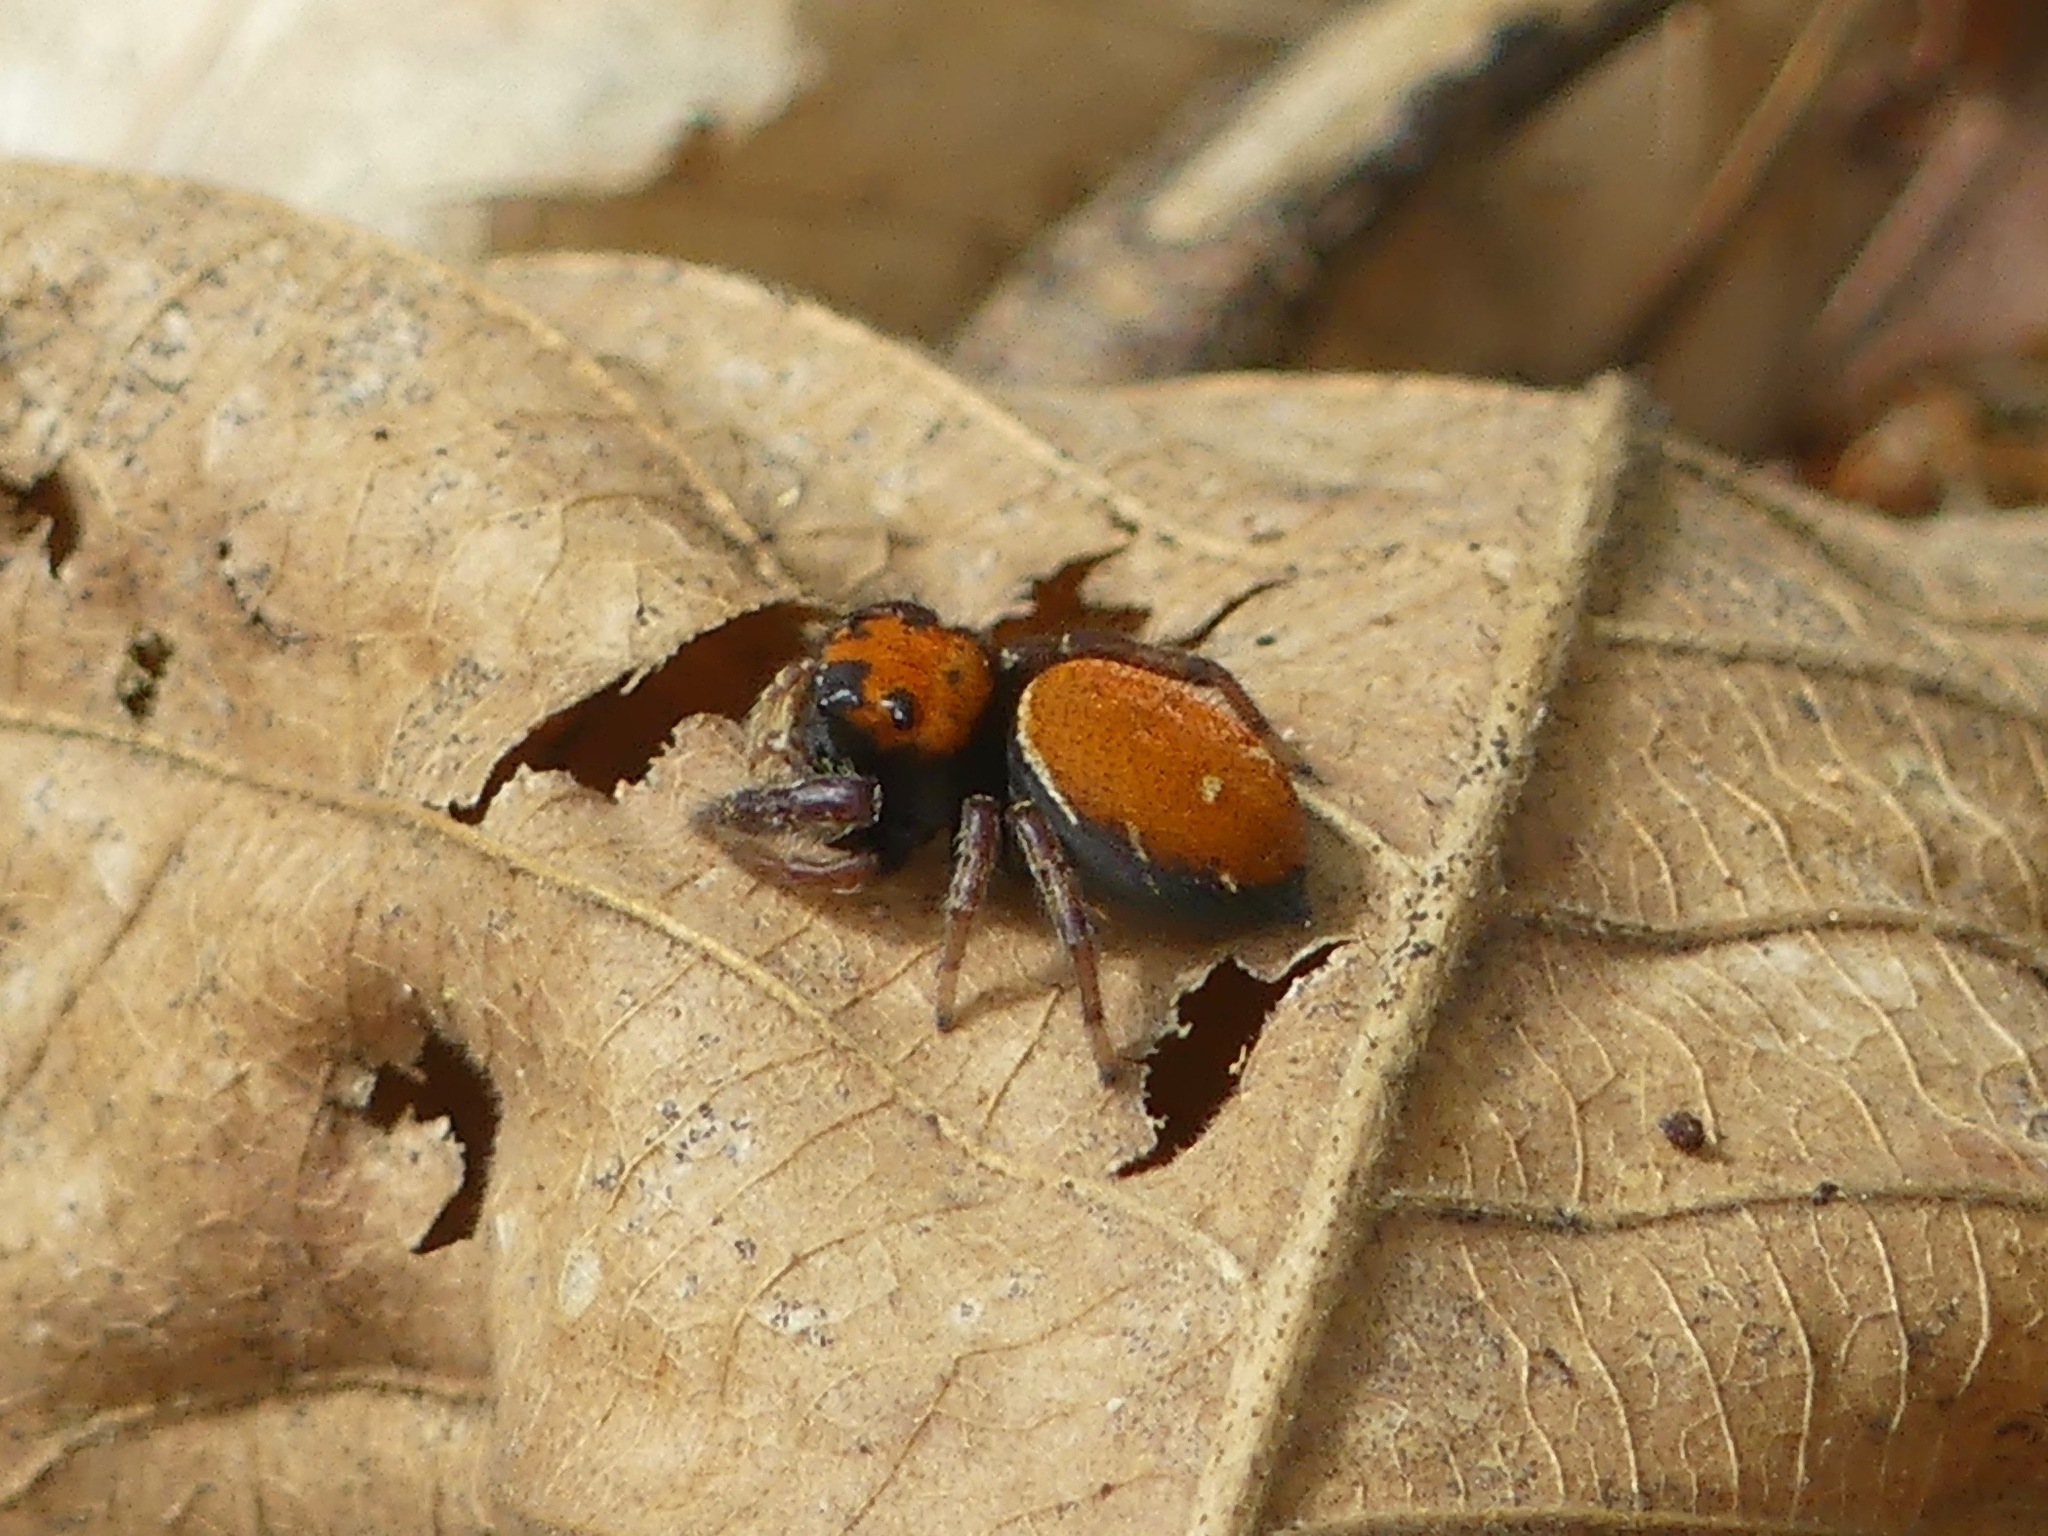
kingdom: Animalia
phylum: Arthropoda
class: Arachnida
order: Araneae
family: Salticidae
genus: Phidippus
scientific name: Phidippus whitmani
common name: Whitman's jumping spider
